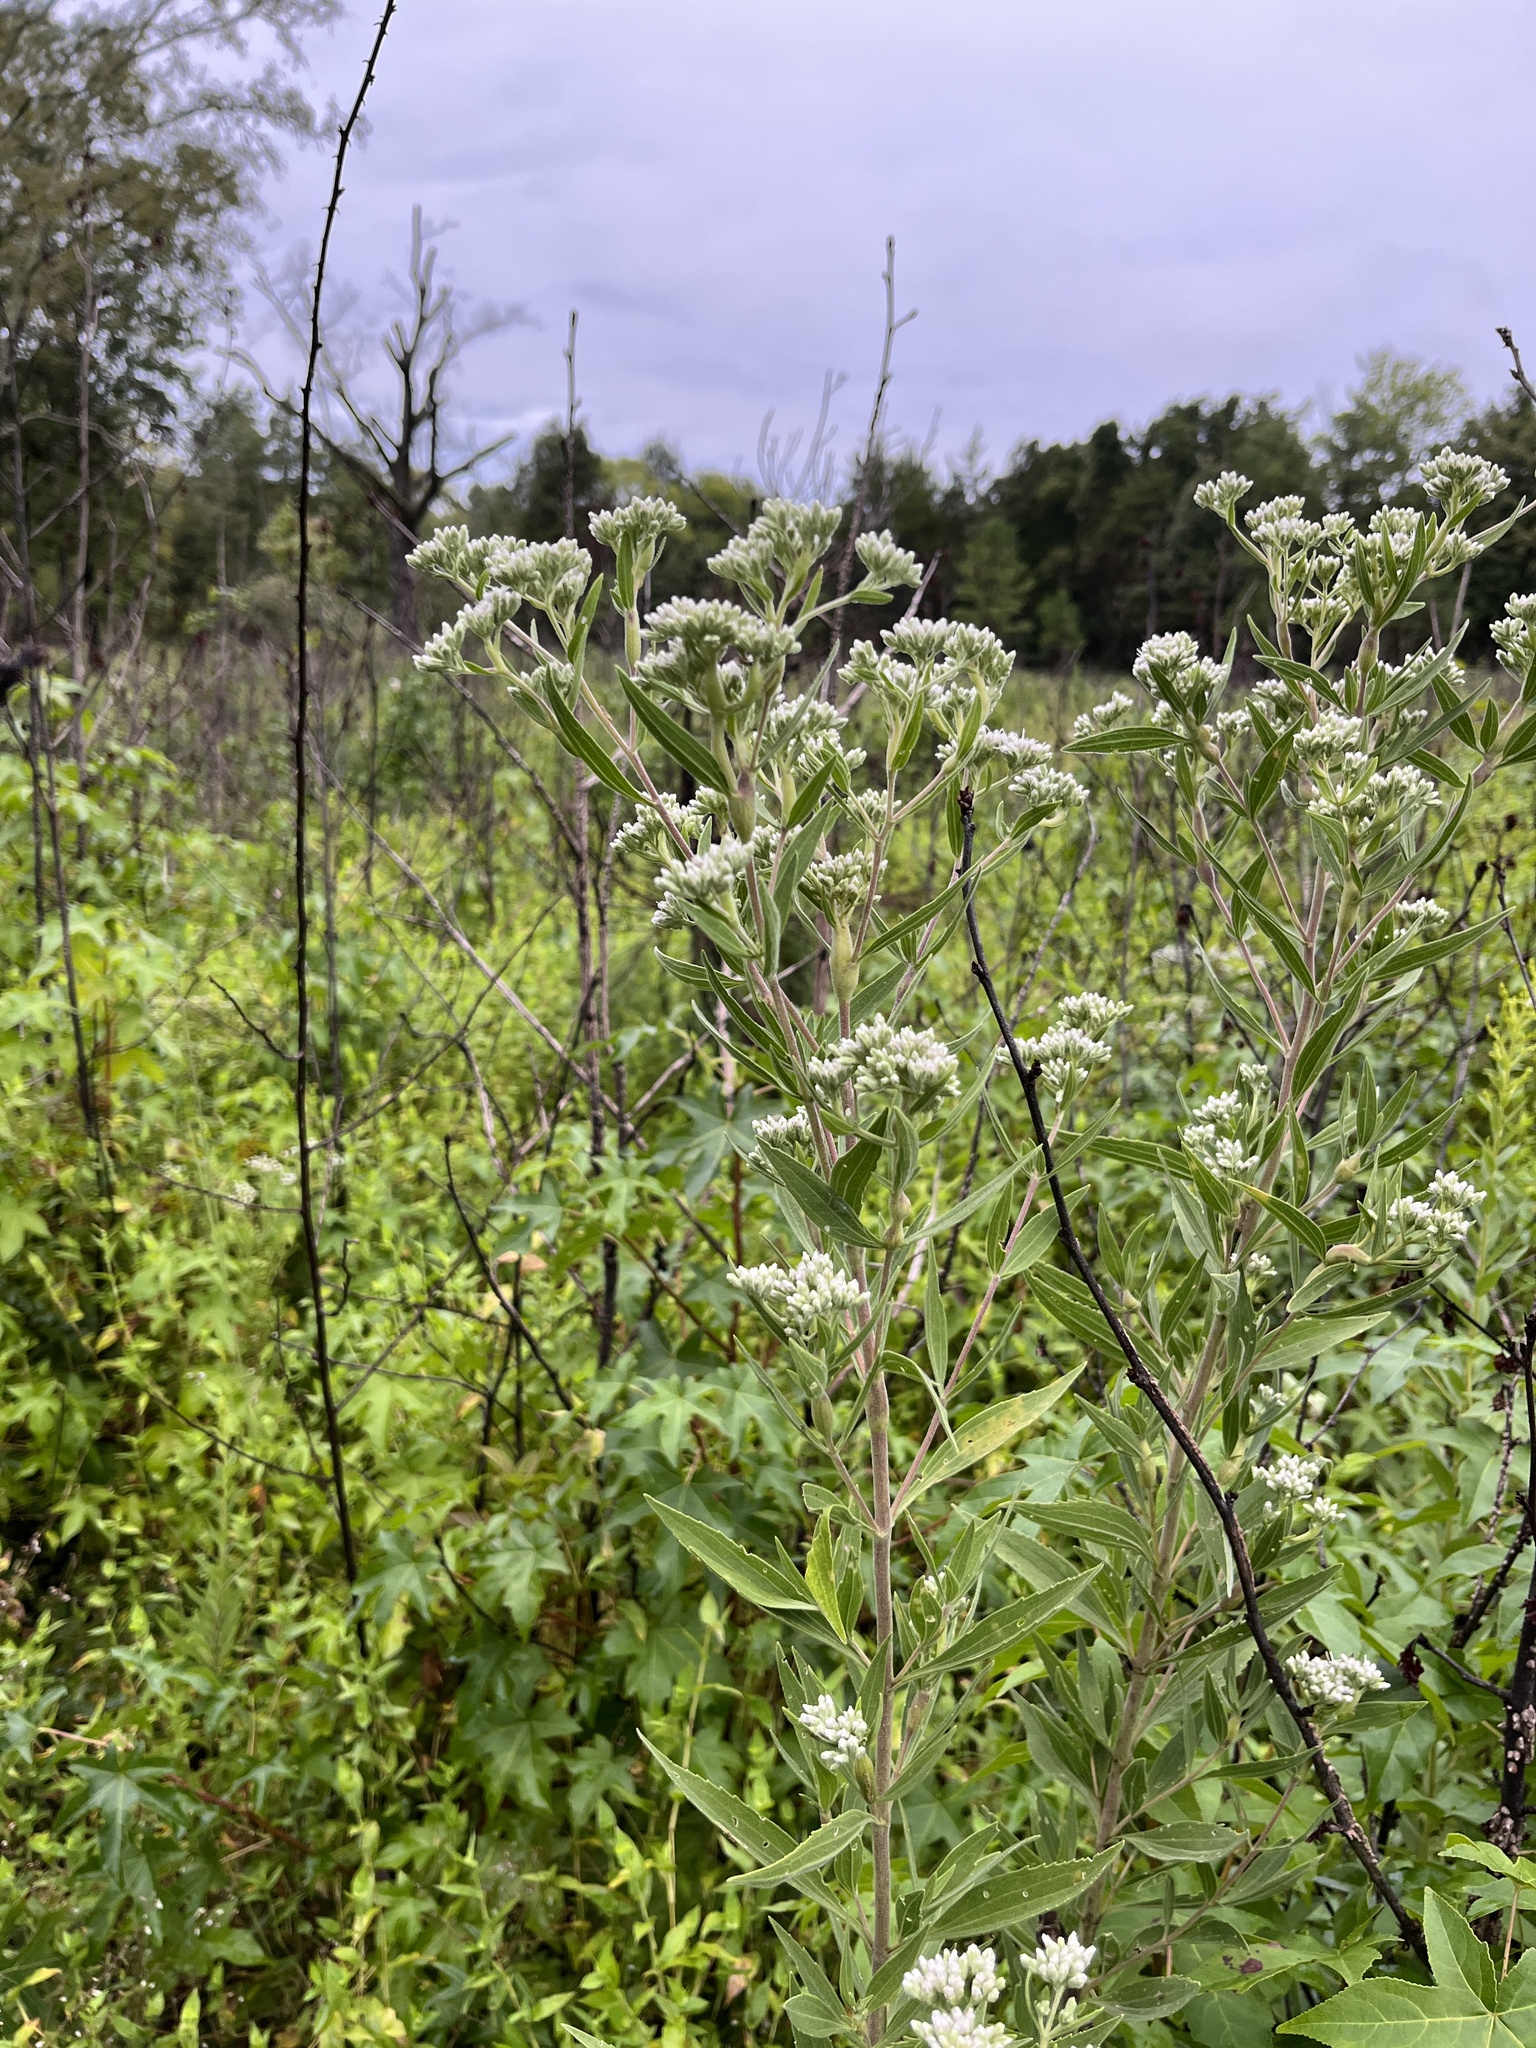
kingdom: Animalia
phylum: Arthropoda
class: Insecta
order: Diptera
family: Cecidomyiidae
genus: Neolasioptera
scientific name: Neolasioptera perfoliata
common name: Boneset stem midge
